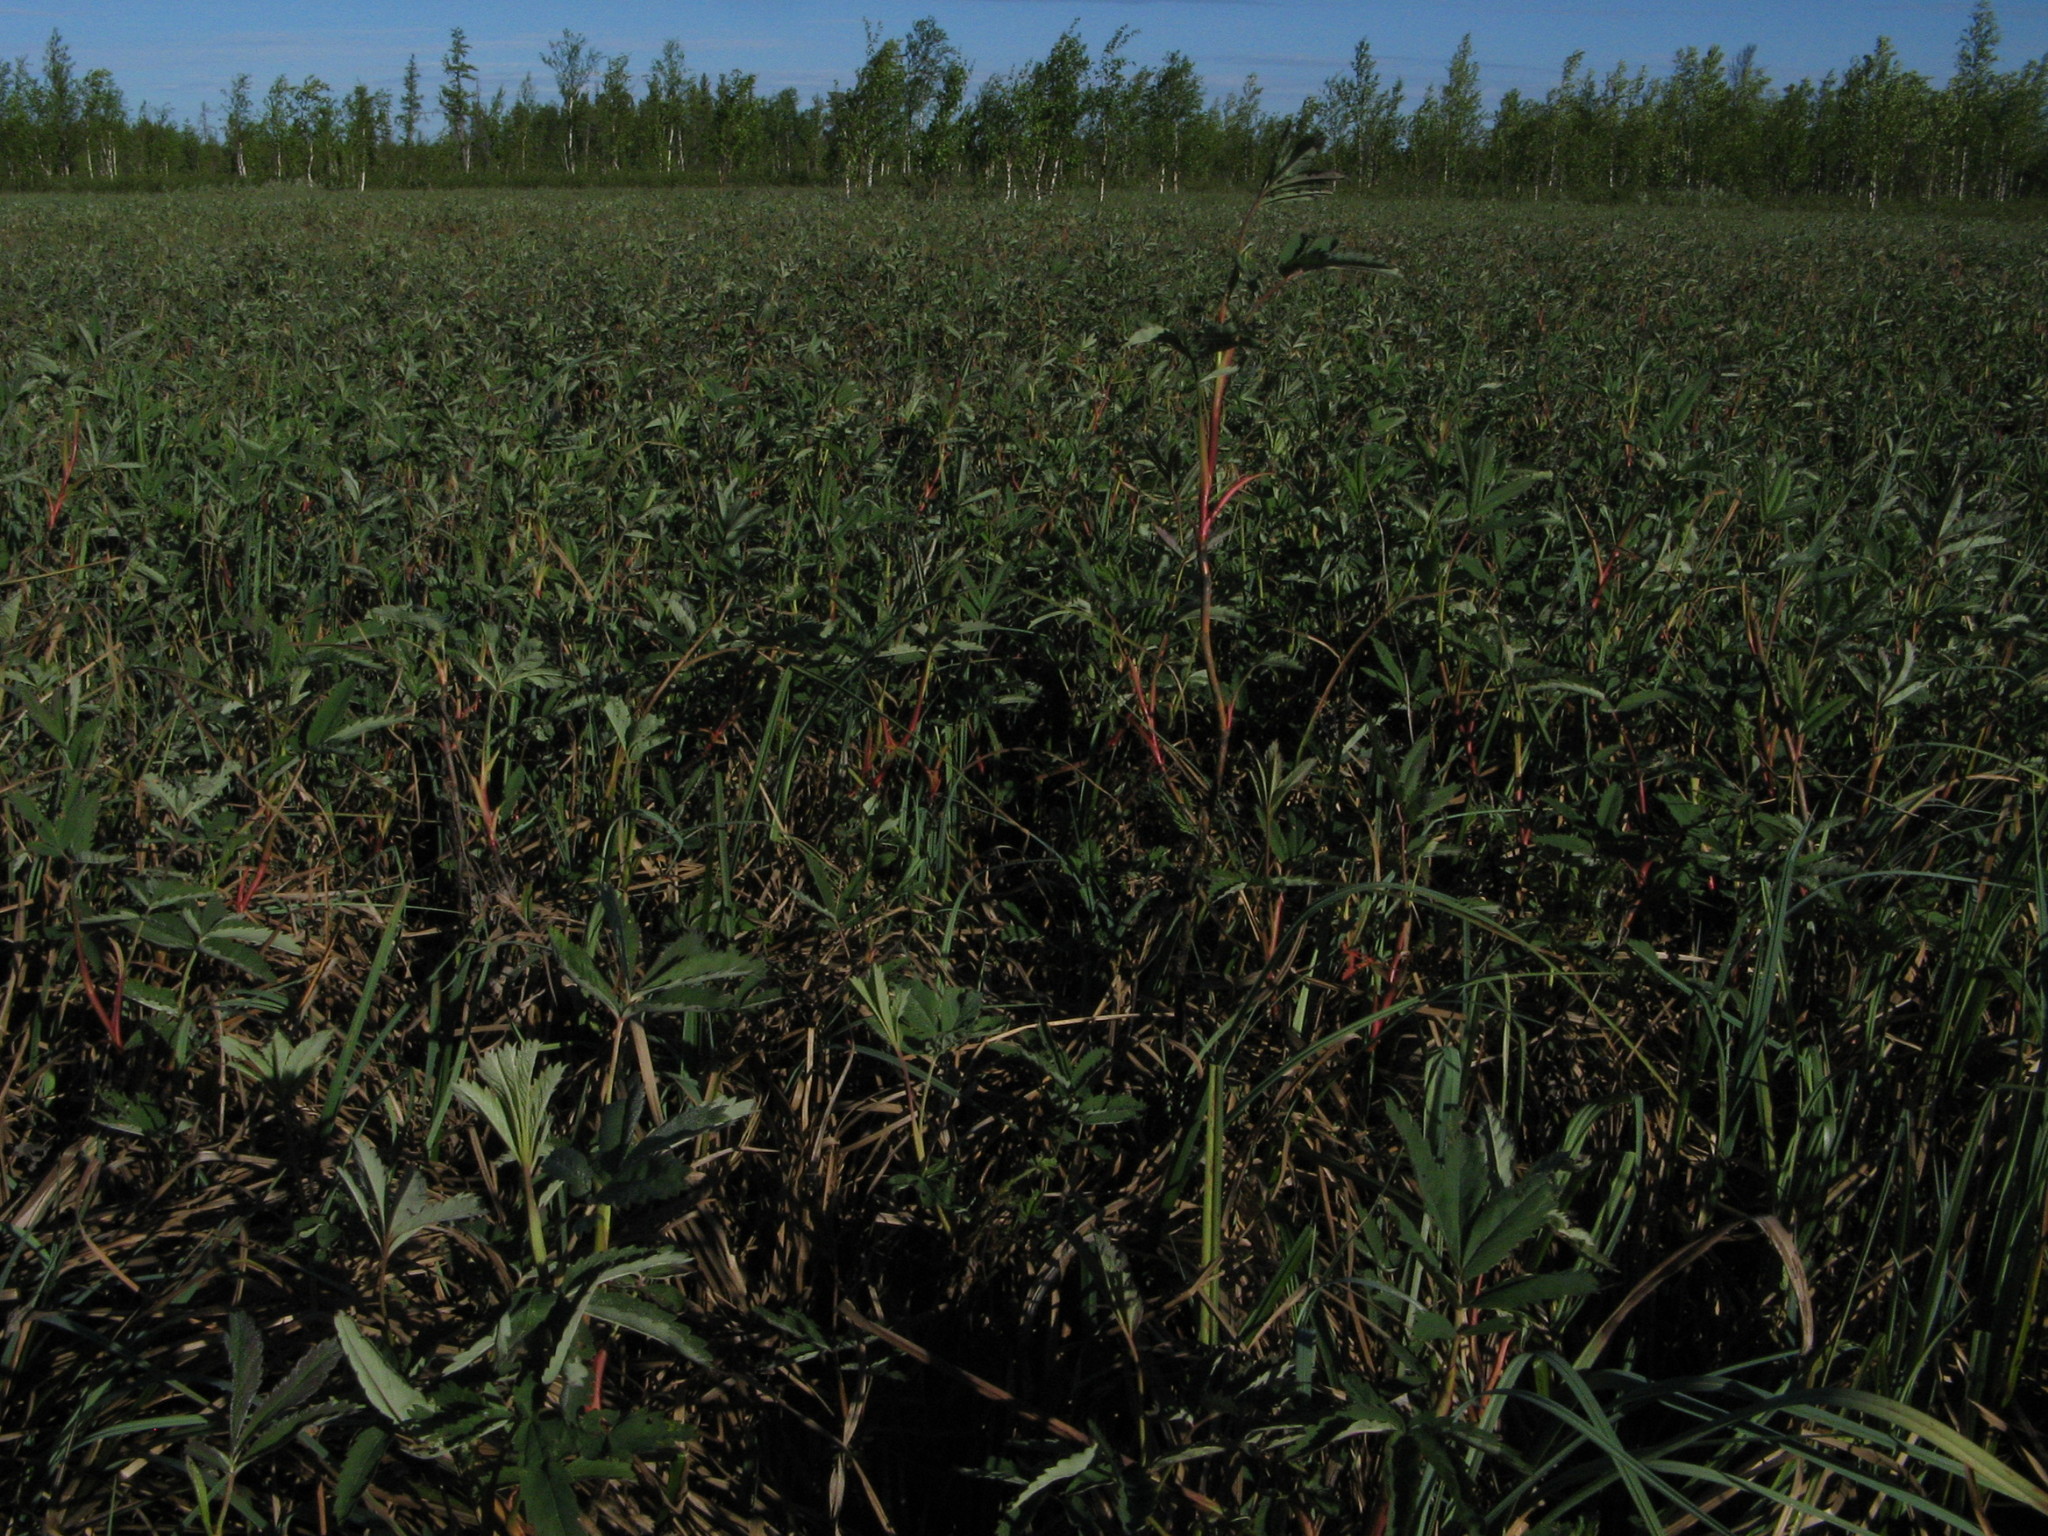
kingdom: Plantae
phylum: Tracheophyta
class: Magnoliopsida
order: Rosales
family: Rosaceae
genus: Comarum
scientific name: Comarum palustre
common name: Marsh cinquefoil
